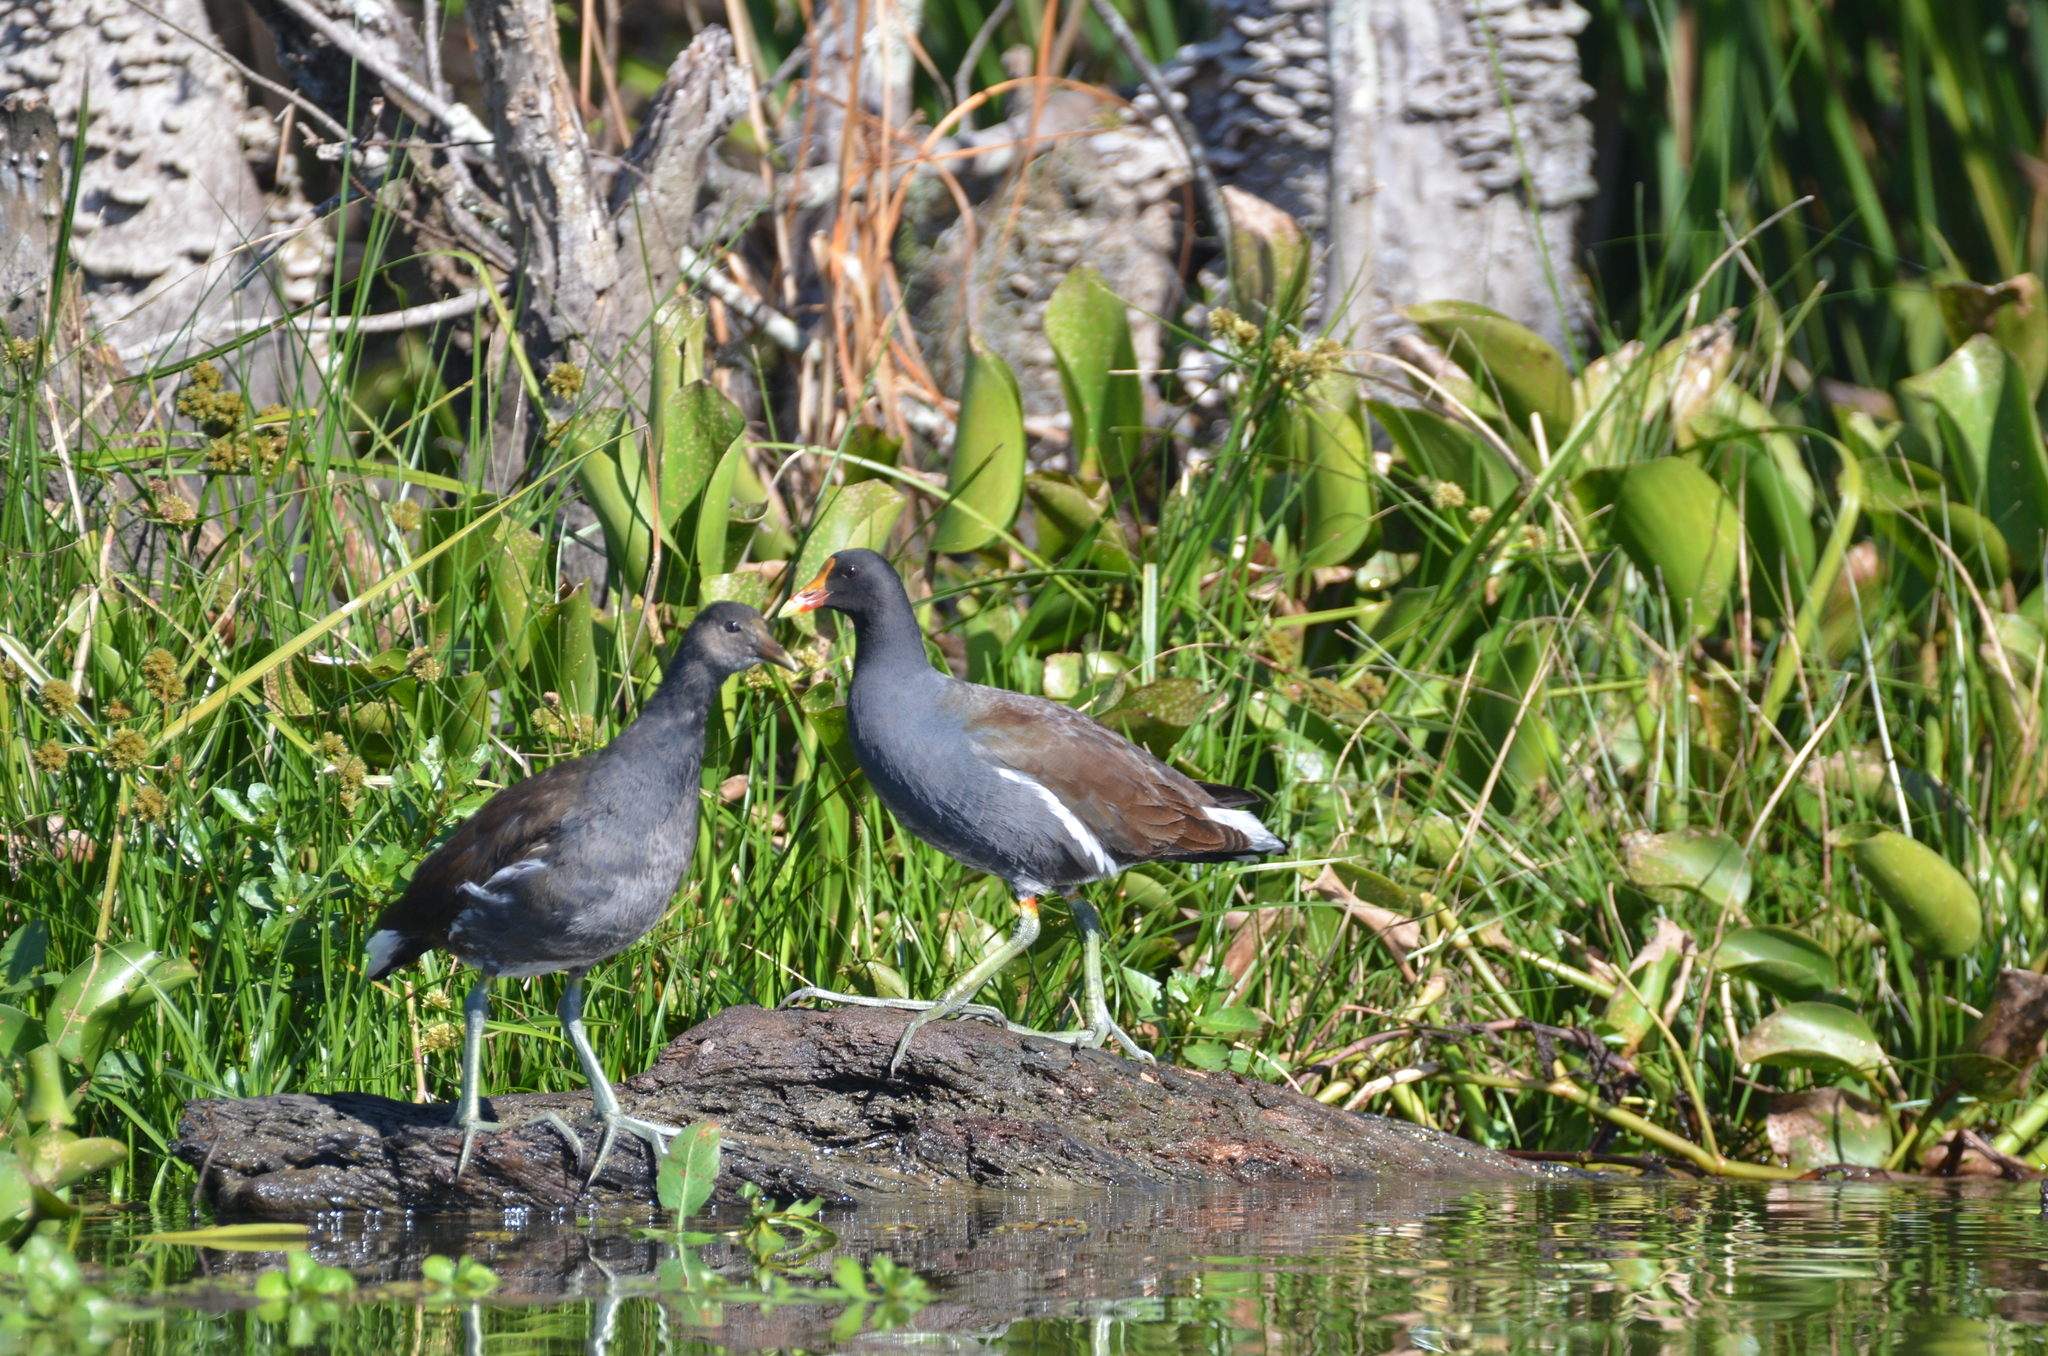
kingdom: Animalia
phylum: Chordata
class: Aves
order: Gruiformes
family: Rallidae
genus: Gallinula
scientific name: Gallinula chloropus
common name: Common moorhen
